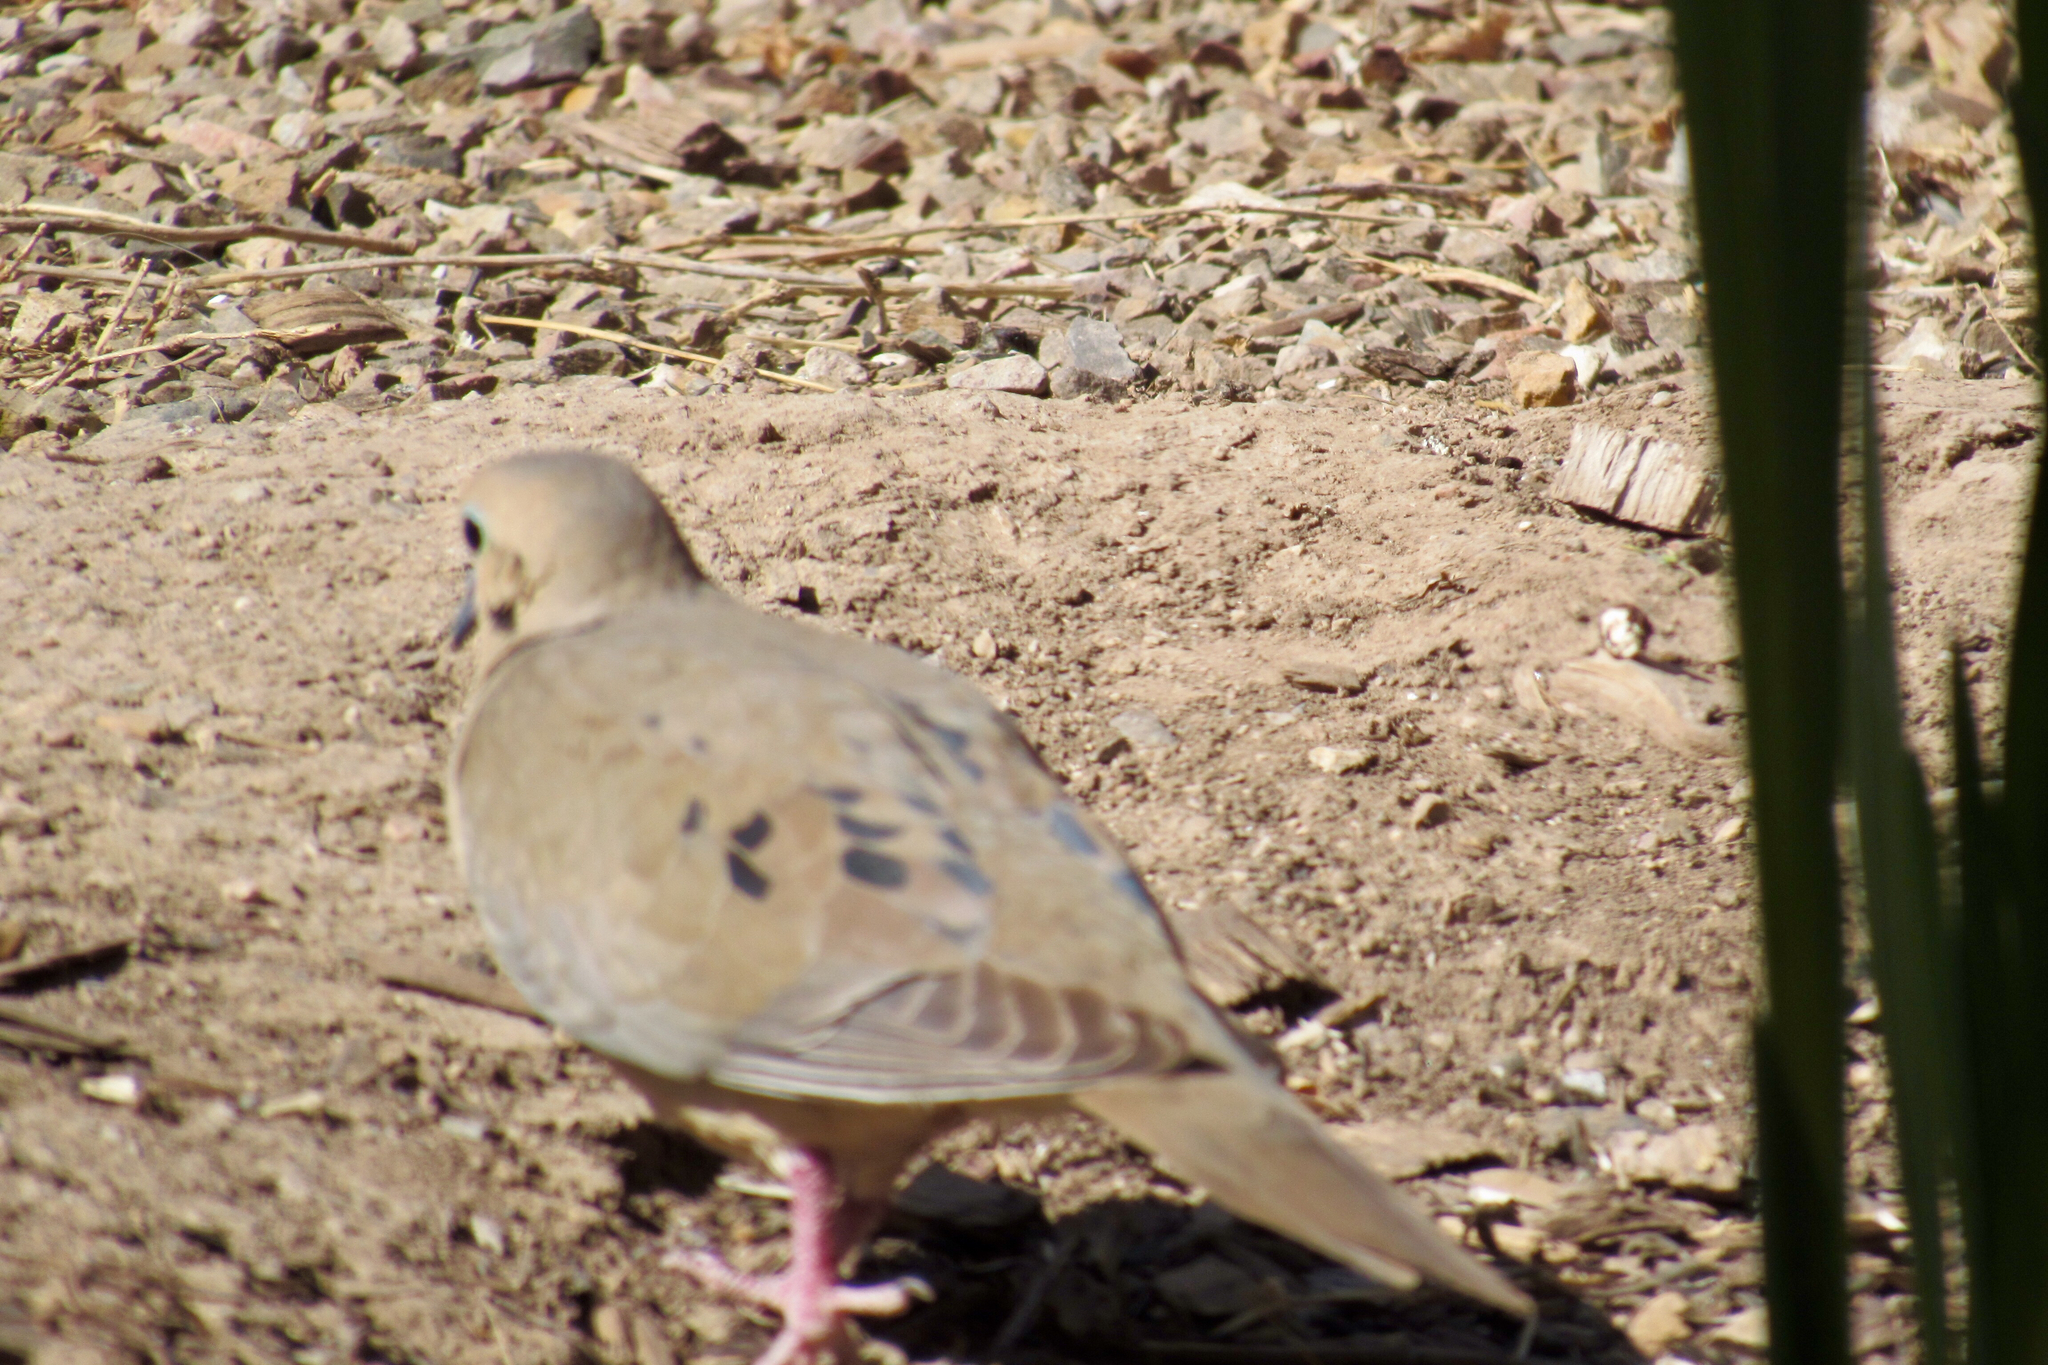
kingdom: Animalia
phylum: Chordata
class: Aves
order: Columbiformes
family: Columbidae
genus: Zenaida
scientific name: Zenaida macroura
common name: Mourning dove
